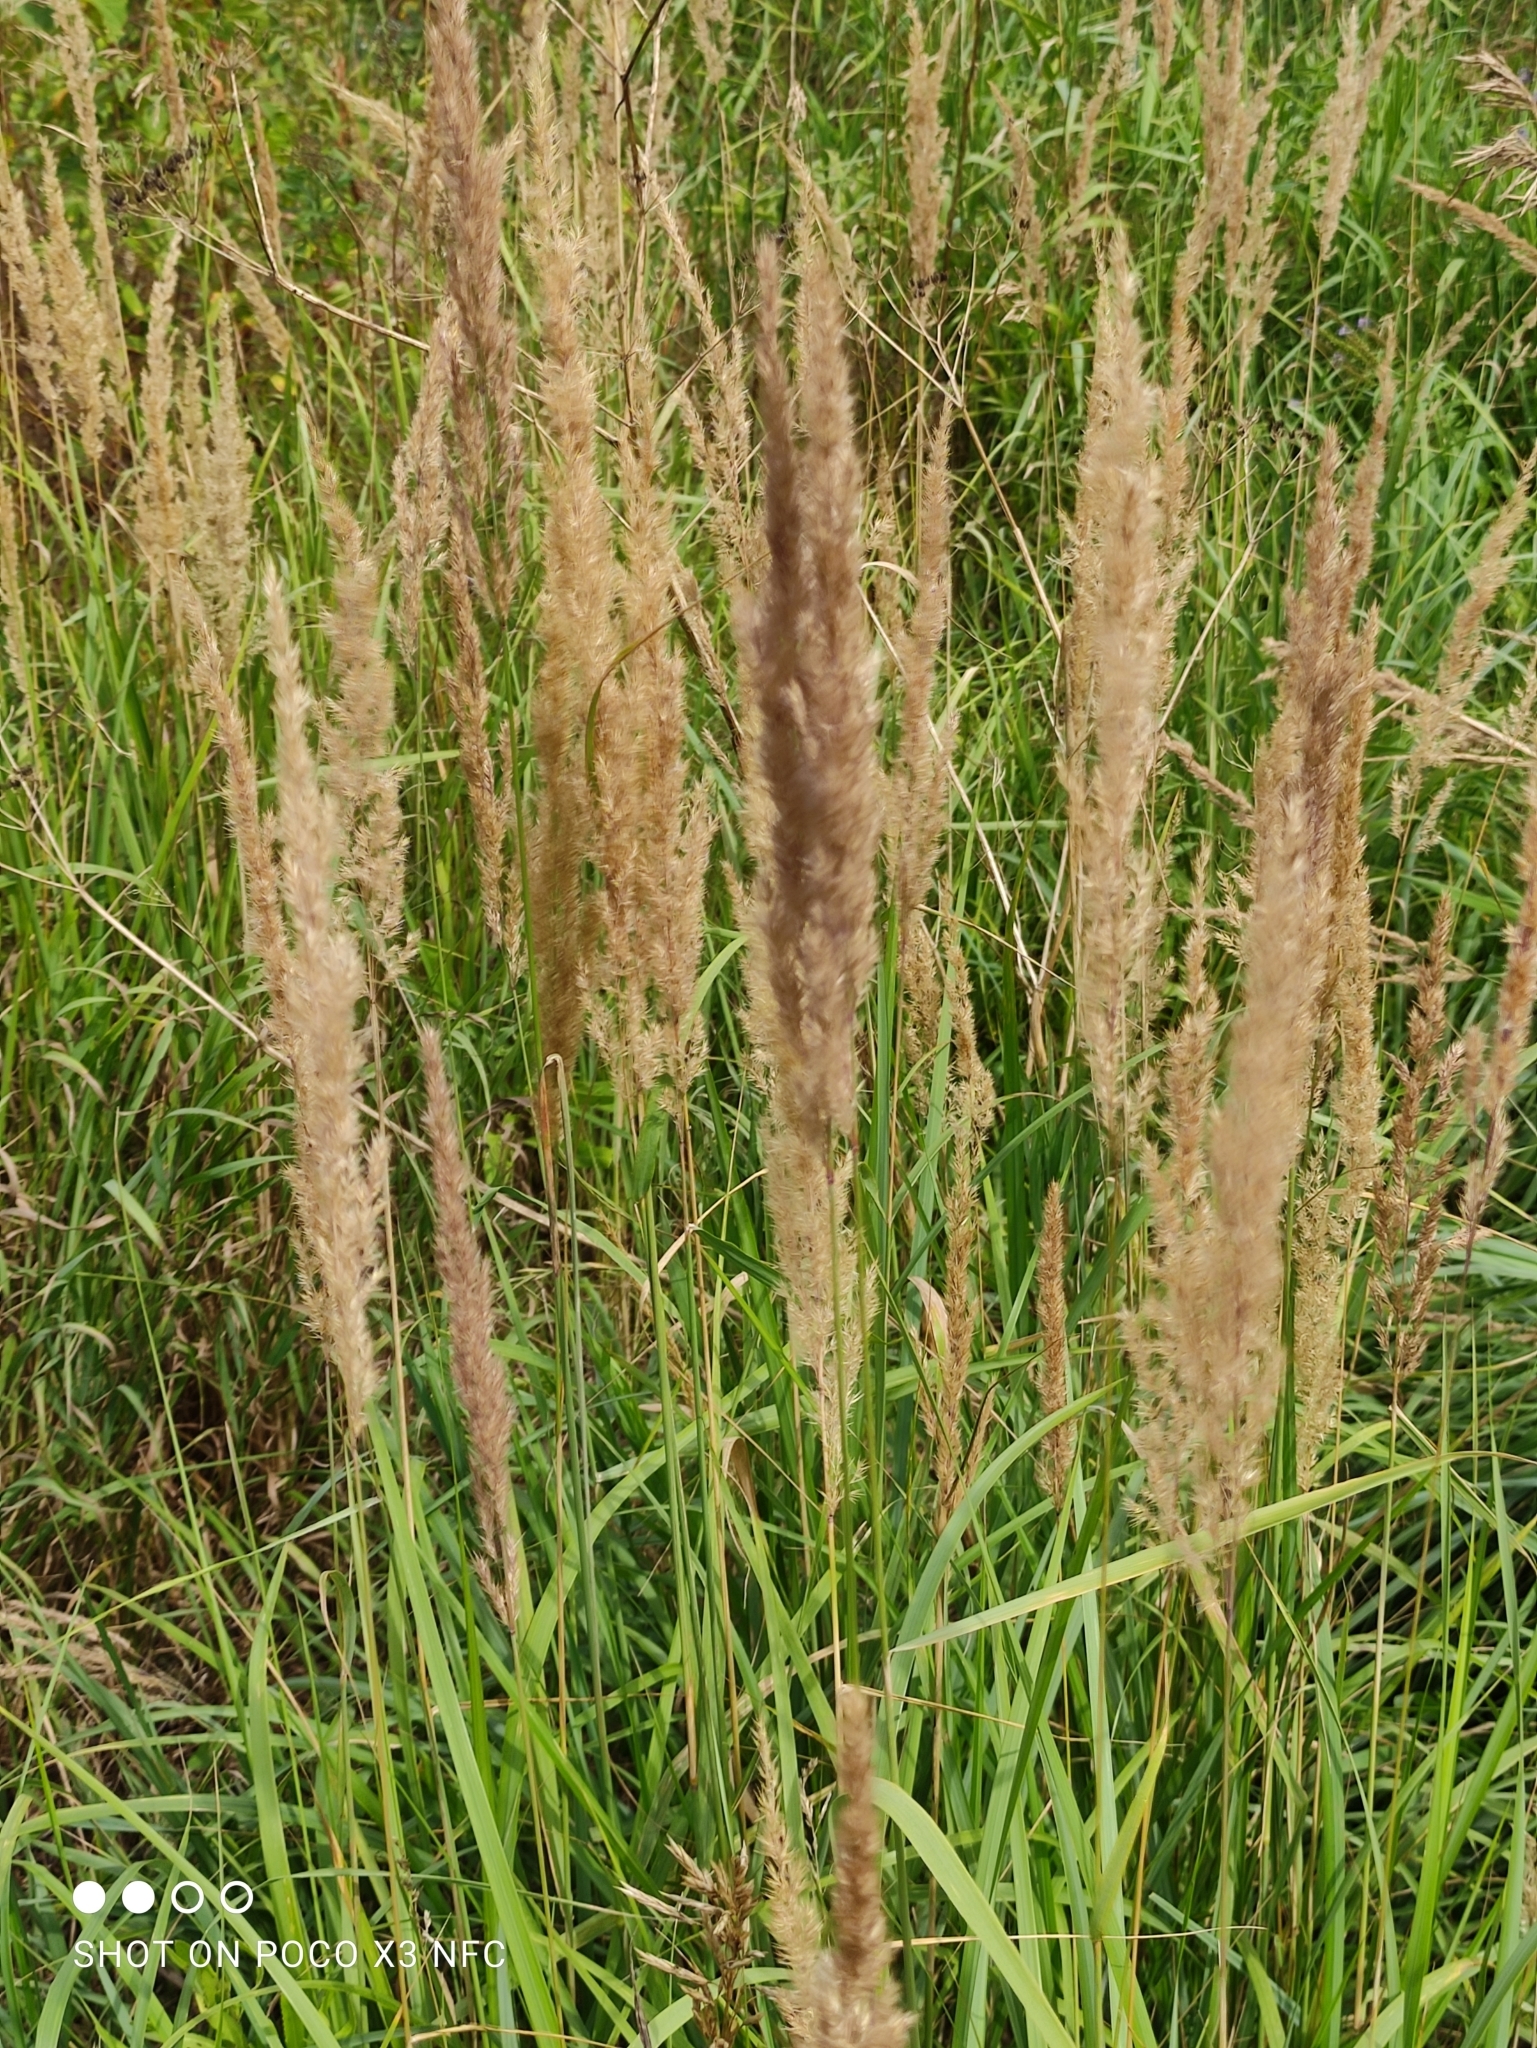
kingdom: Plantae
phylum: Tracheophyta
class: Liliopsida
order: Poales
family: Poaceae
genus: Calamagrostis
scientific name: Calamagrostis epigejos
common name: Wood small-reed
